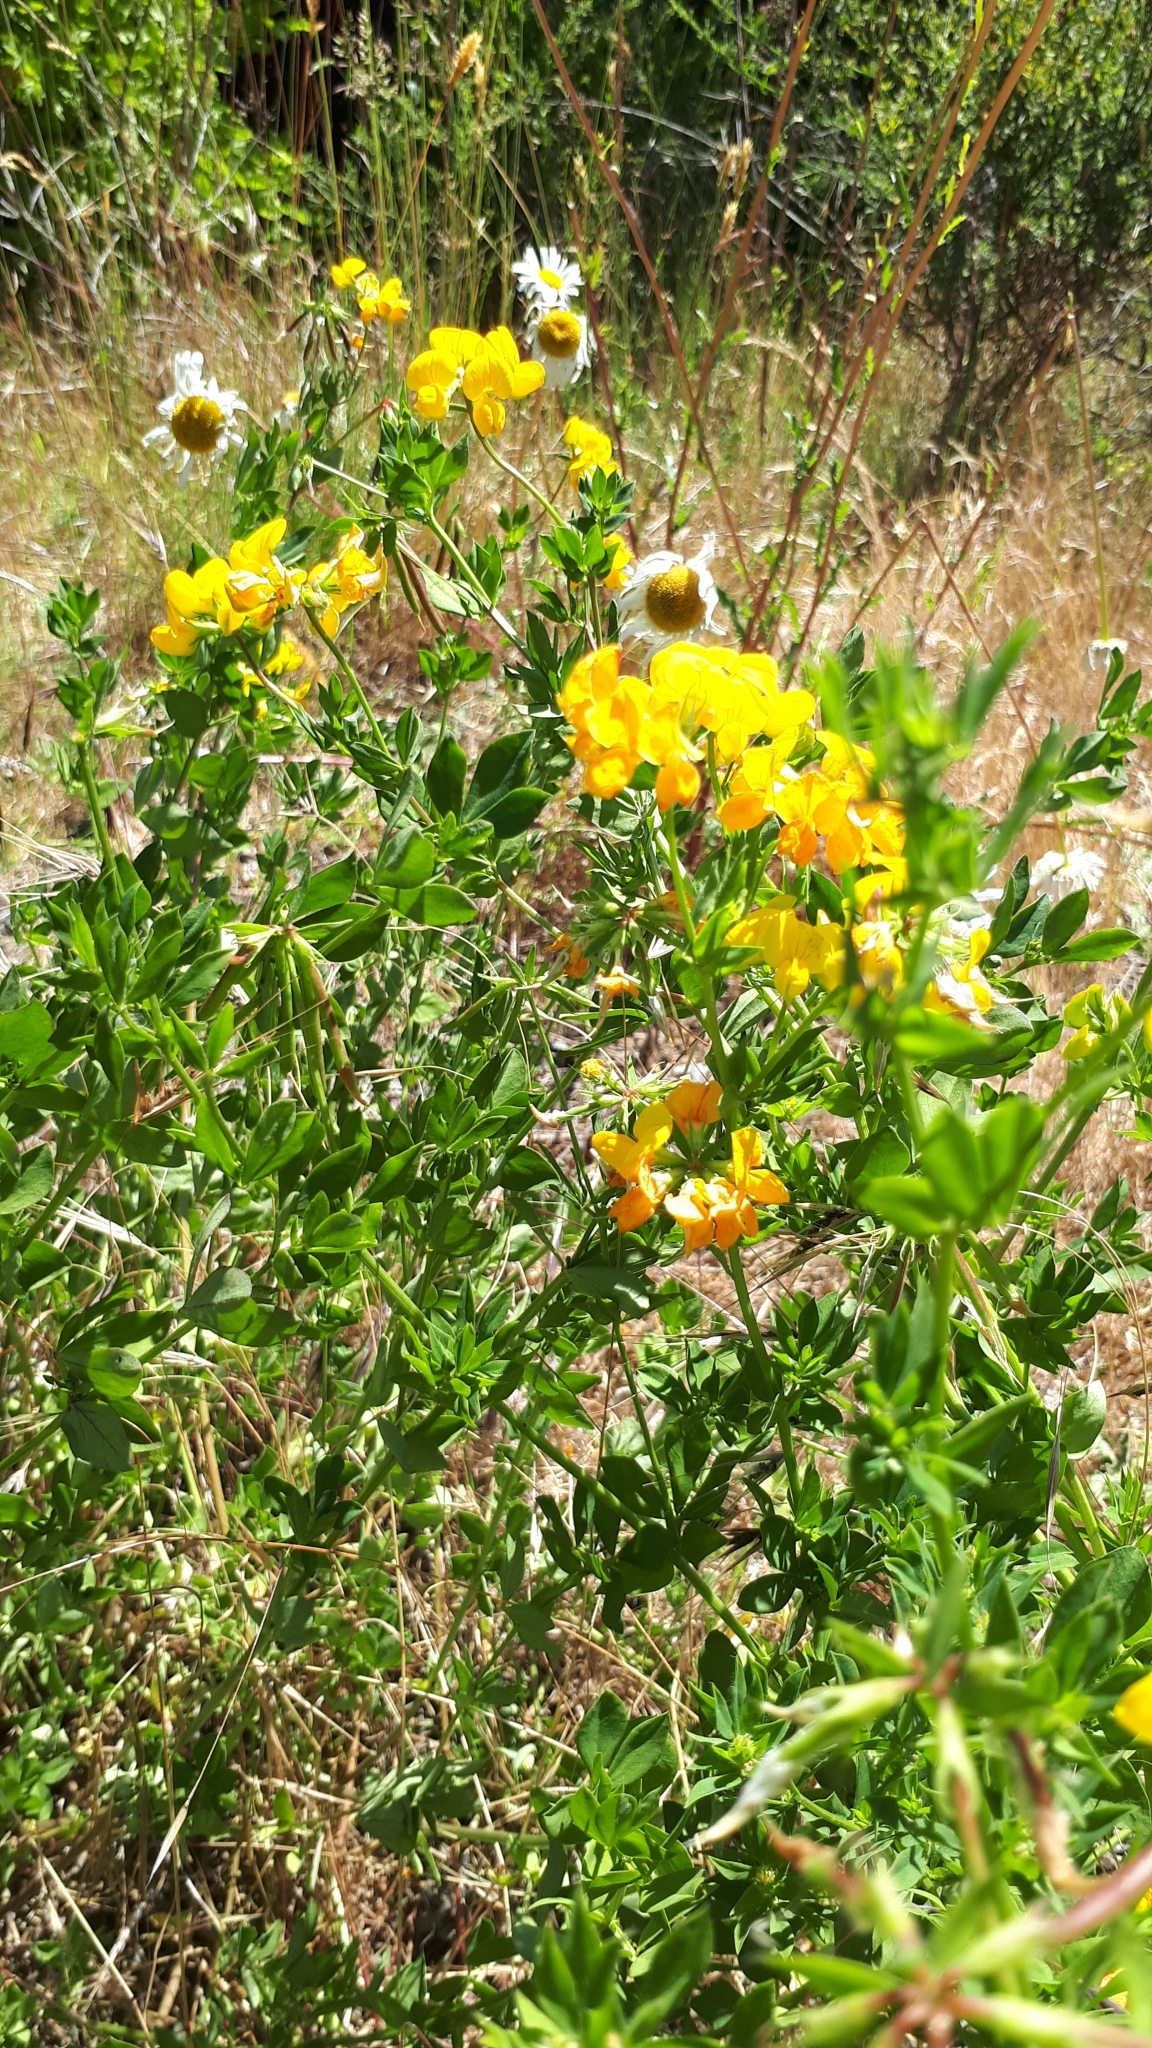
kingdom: Plantae
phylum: Tracheophyta
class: Magnoliopsida
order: Fabales
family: Fabaceae
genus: Lotus
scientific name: Lotus corniculatus
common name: Common bird's-foot-trefoil
